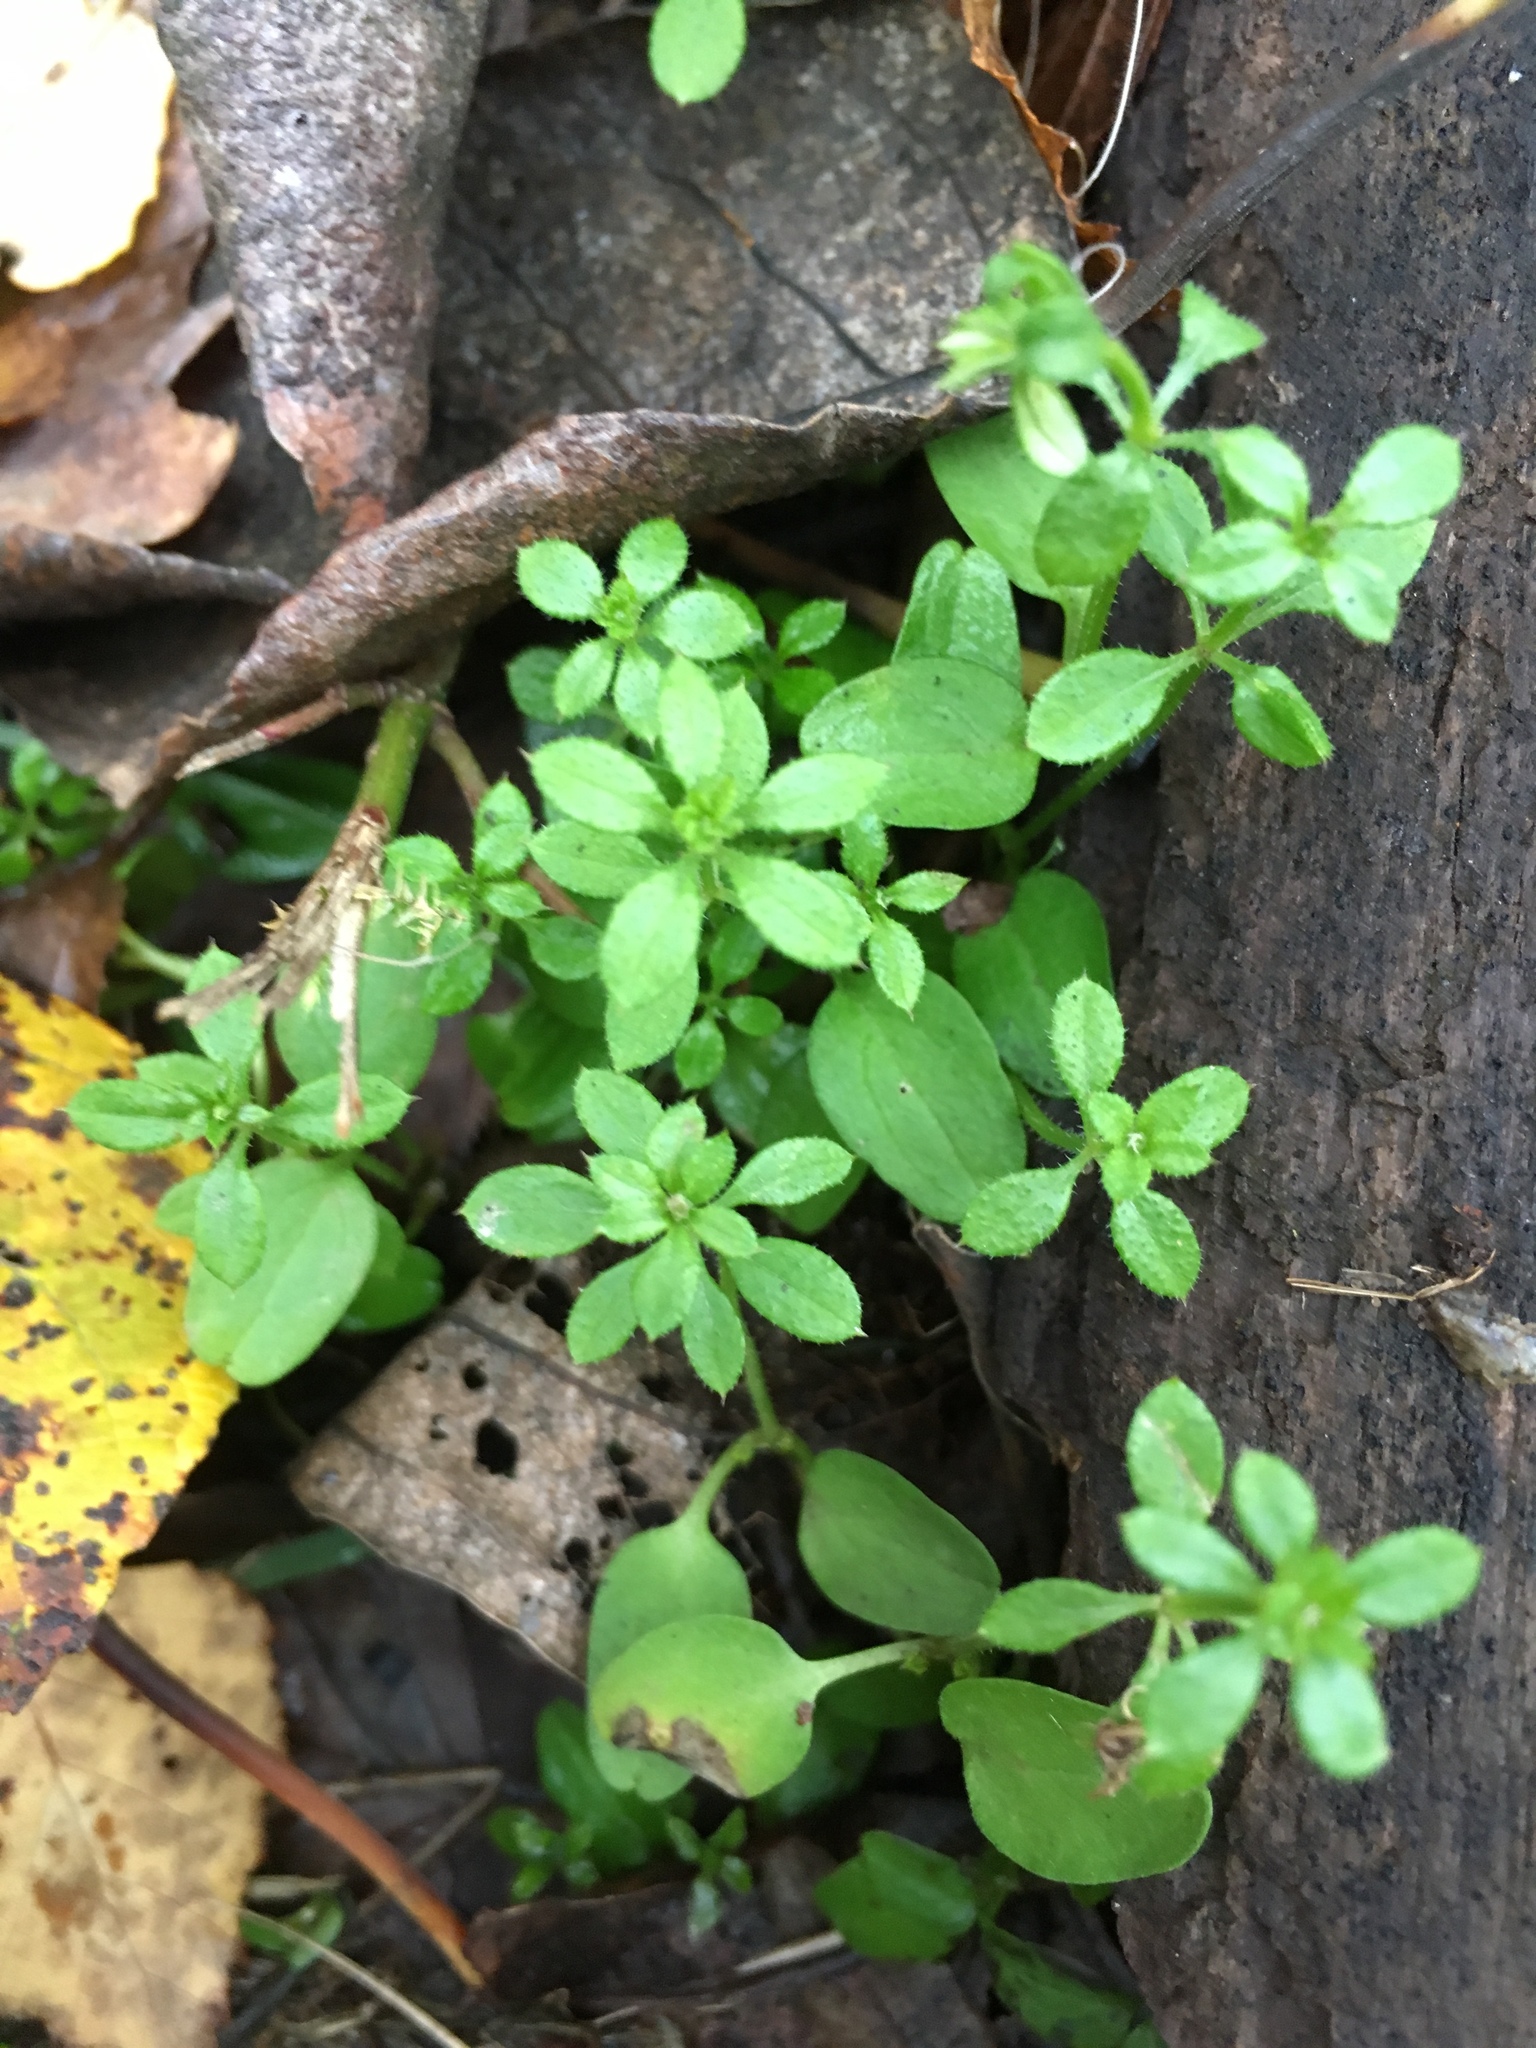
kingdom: Plantae
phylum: Tracheophyta
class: Magnoliopsida
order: Gentianales
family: Rubiaceae
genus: Galium
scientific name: Galium aparine
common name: Cleavers
